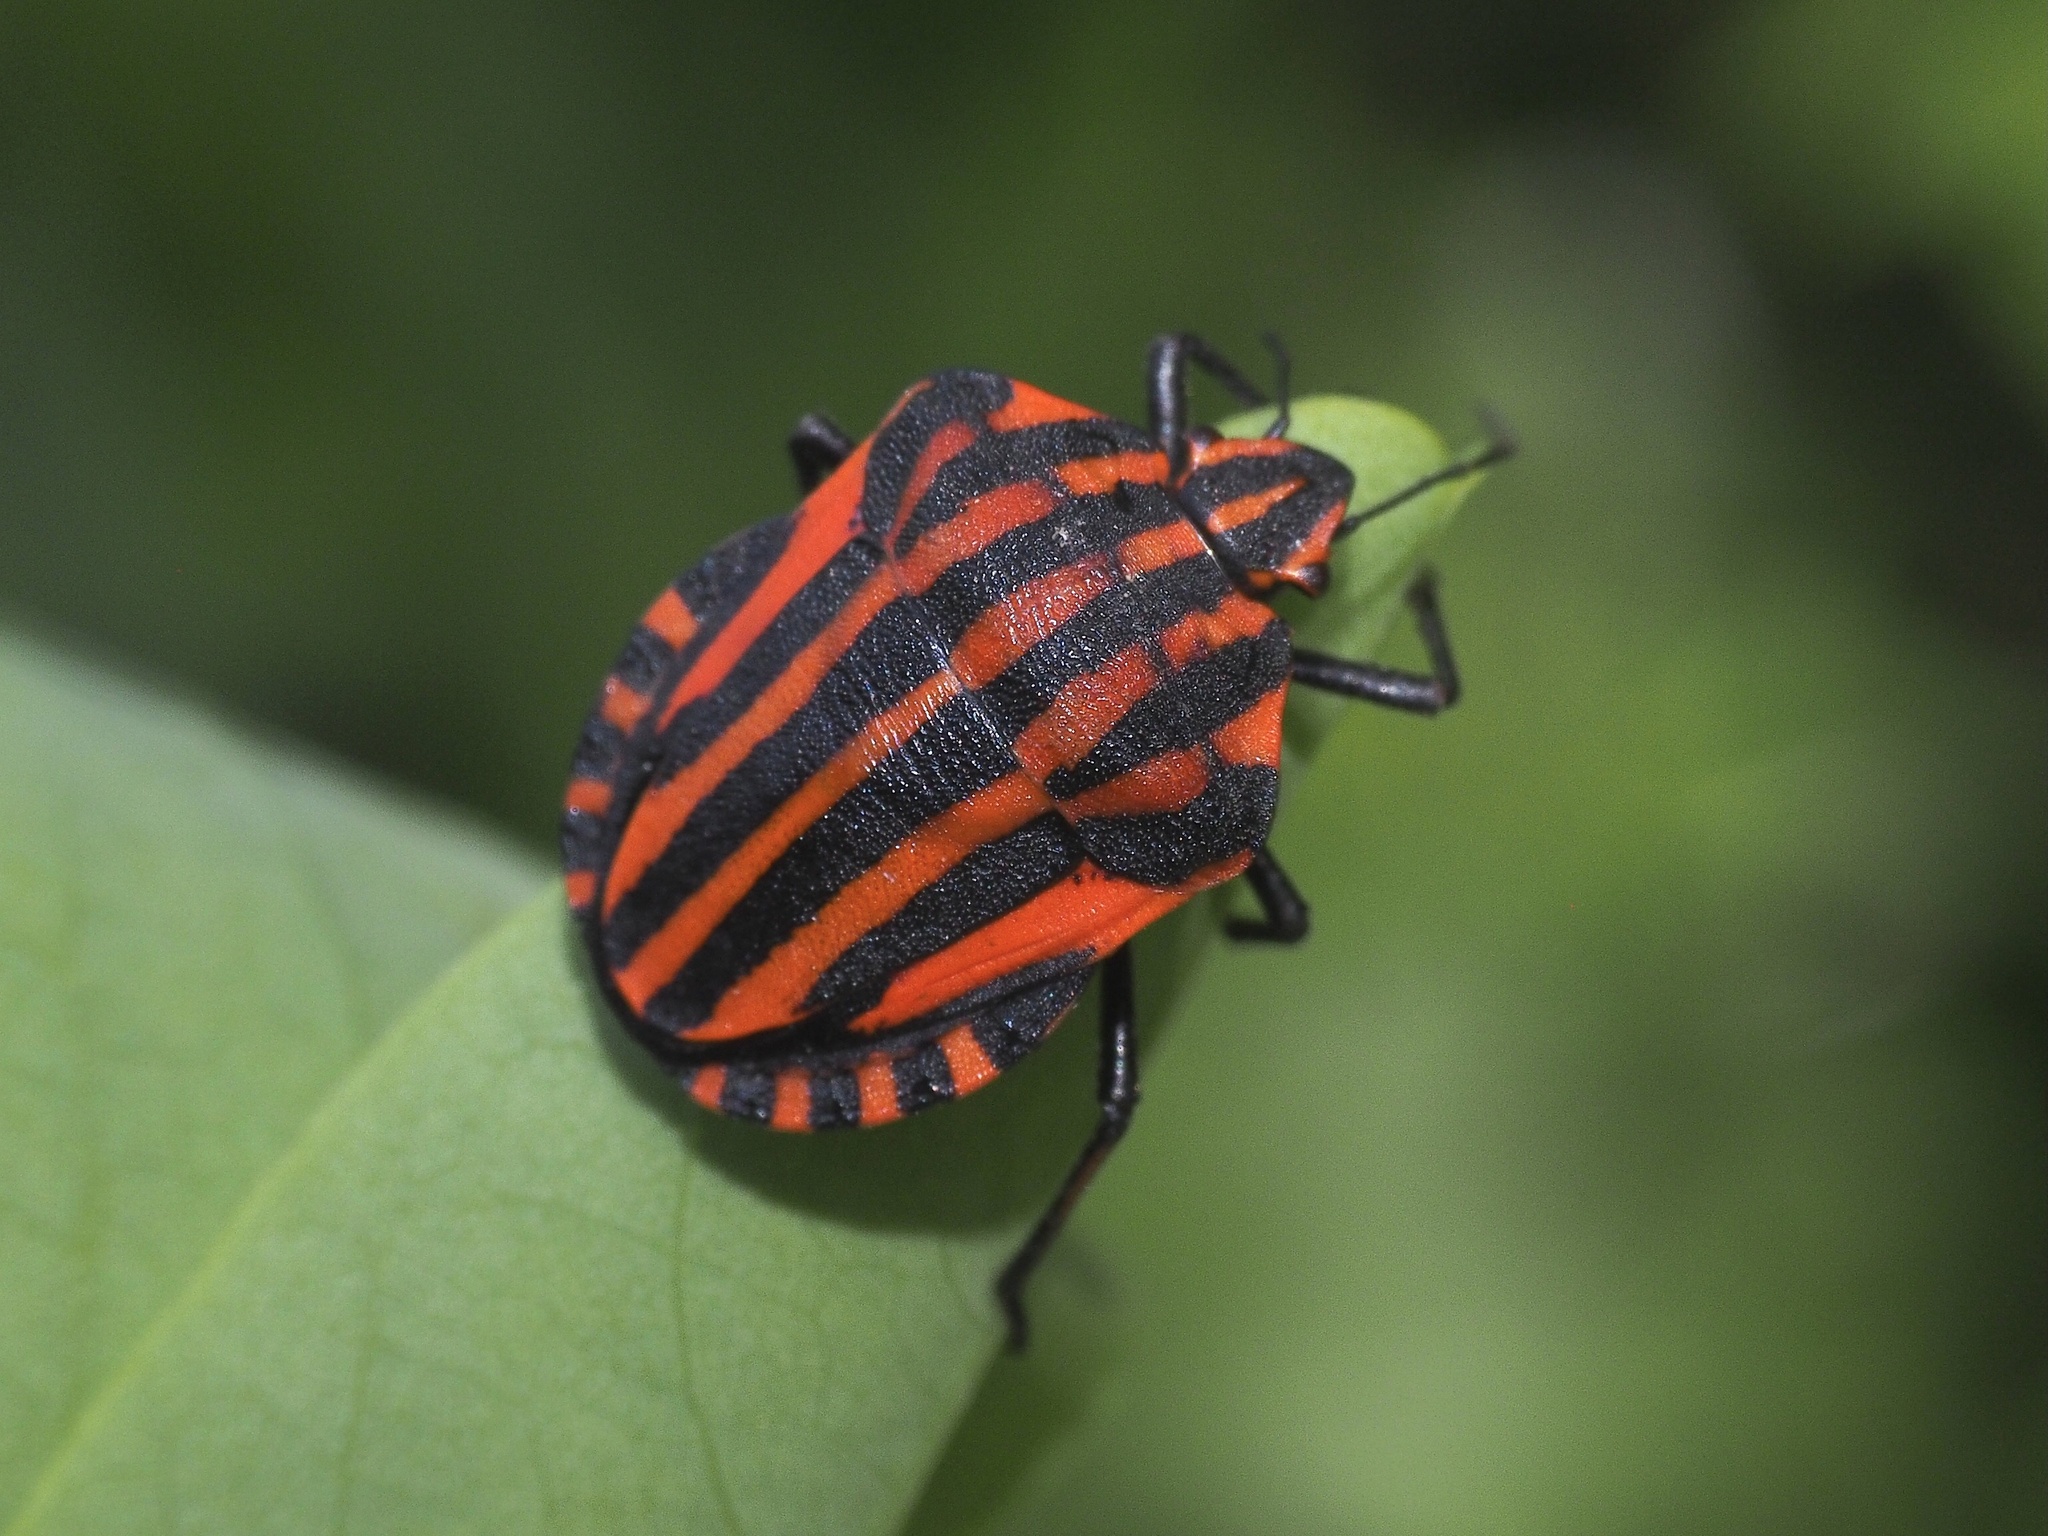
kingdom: Animalia
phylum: Arthropoda
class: Insecta
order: Hemiptera
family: Pentatomidae
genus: Graphosoma
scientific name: Graphosoma italicum
